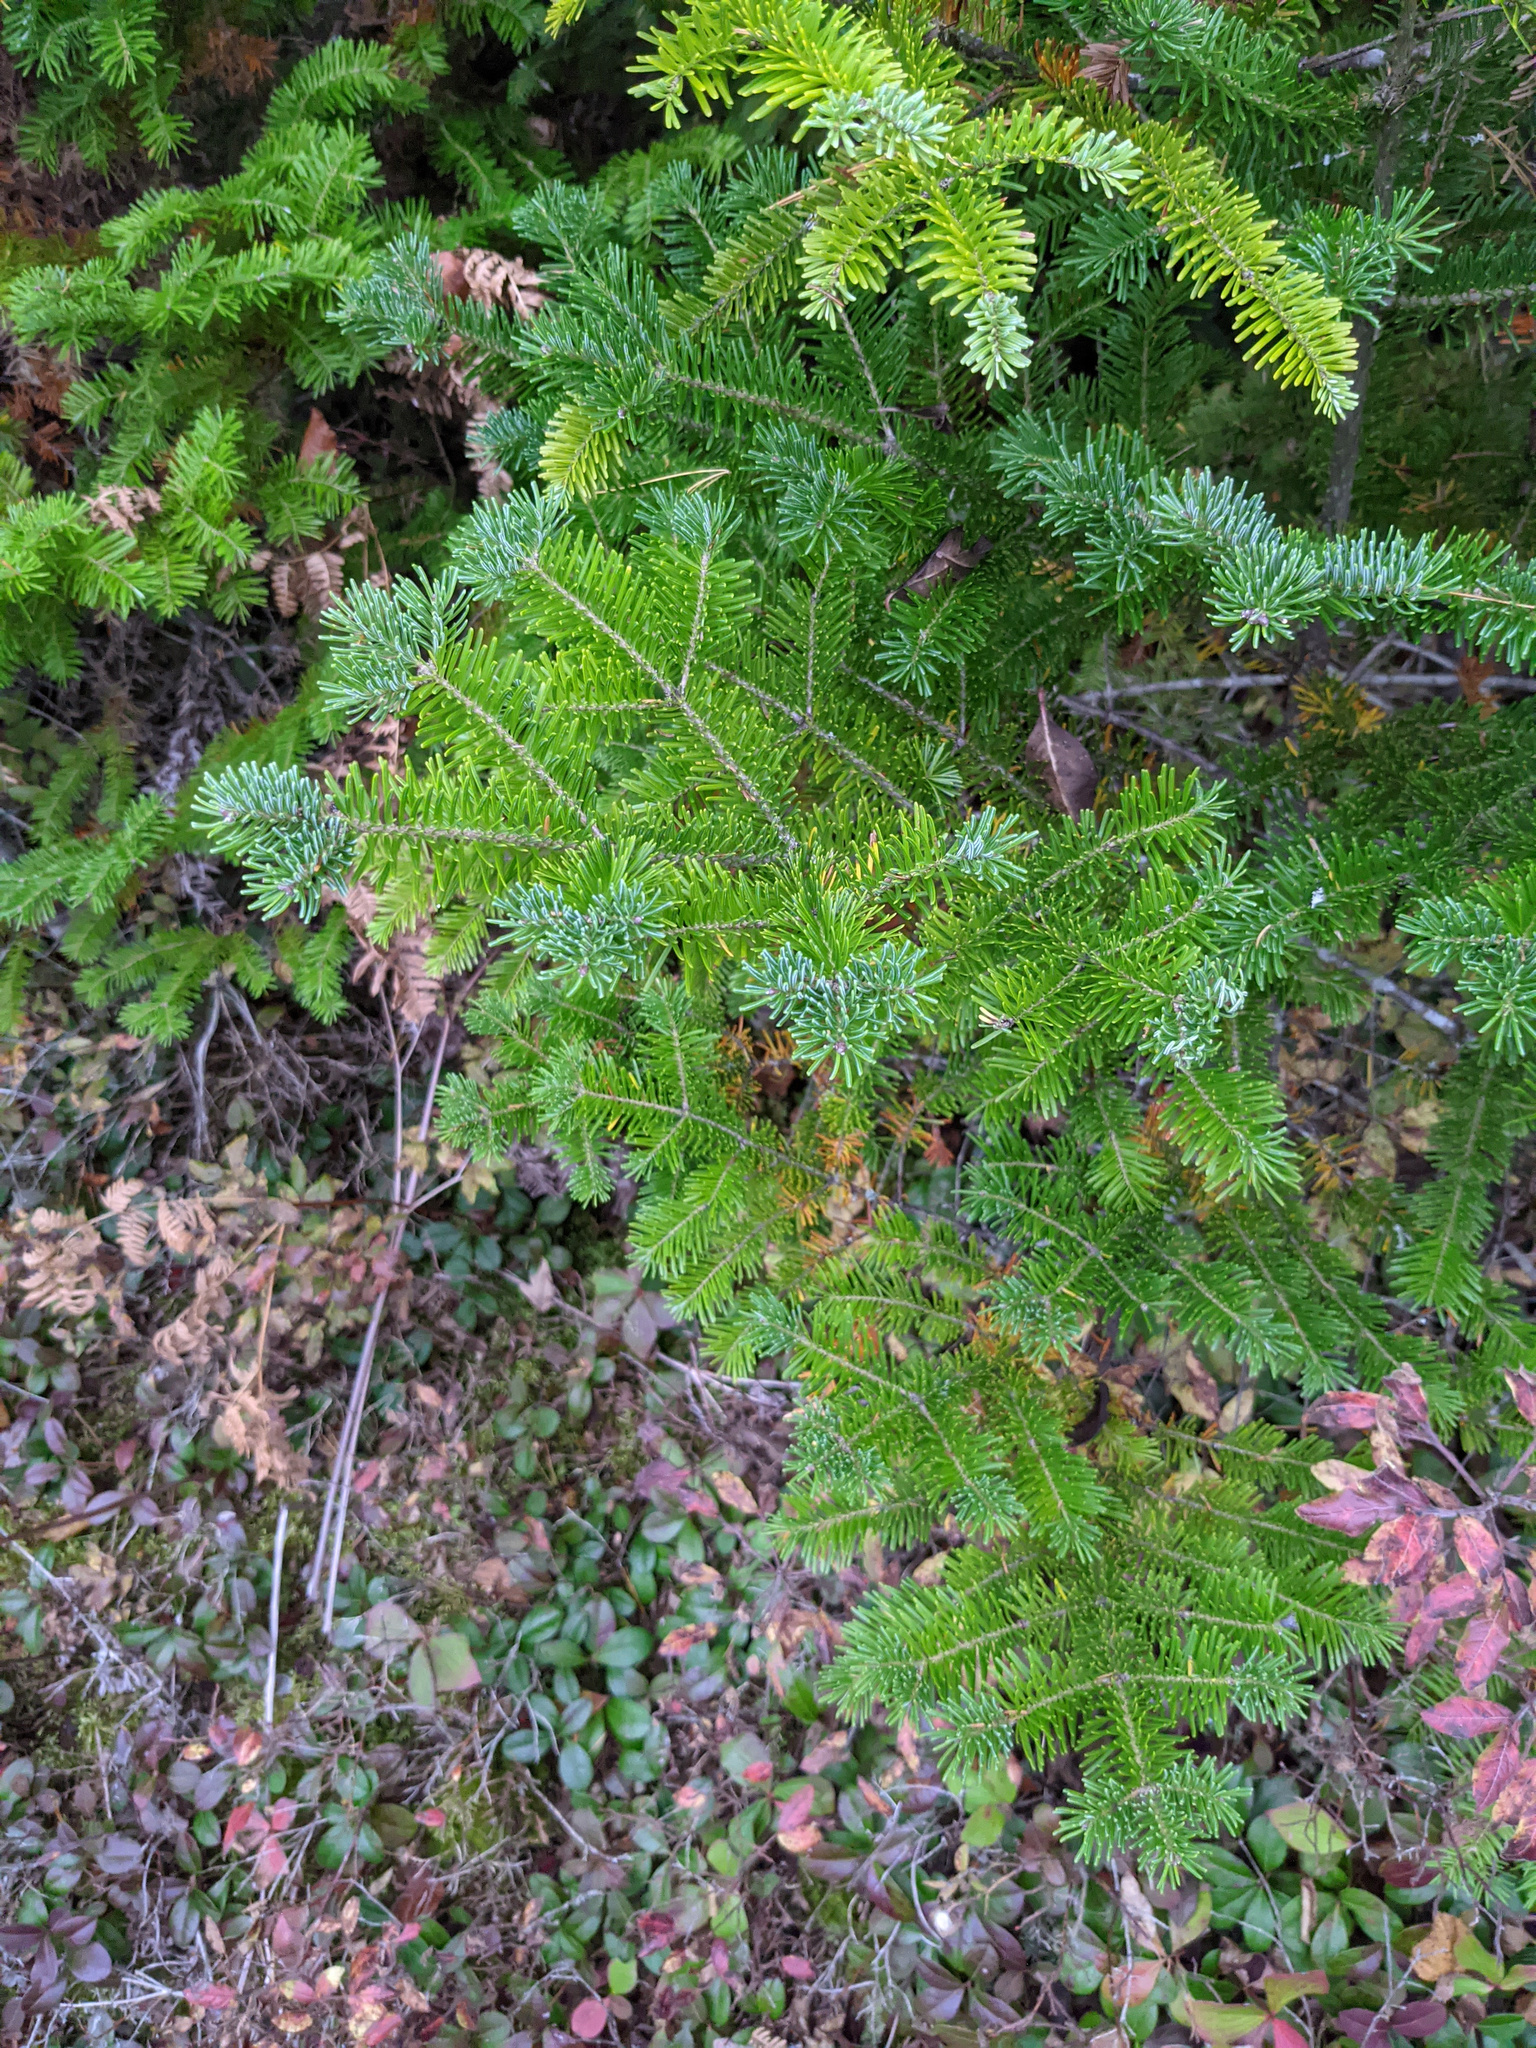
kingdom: Plantae
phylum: Tracheophyta
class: Pinopsida
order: Pinales
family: Pinaceae
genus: Abies
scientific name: Abies balsamea
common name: Balsam fir
